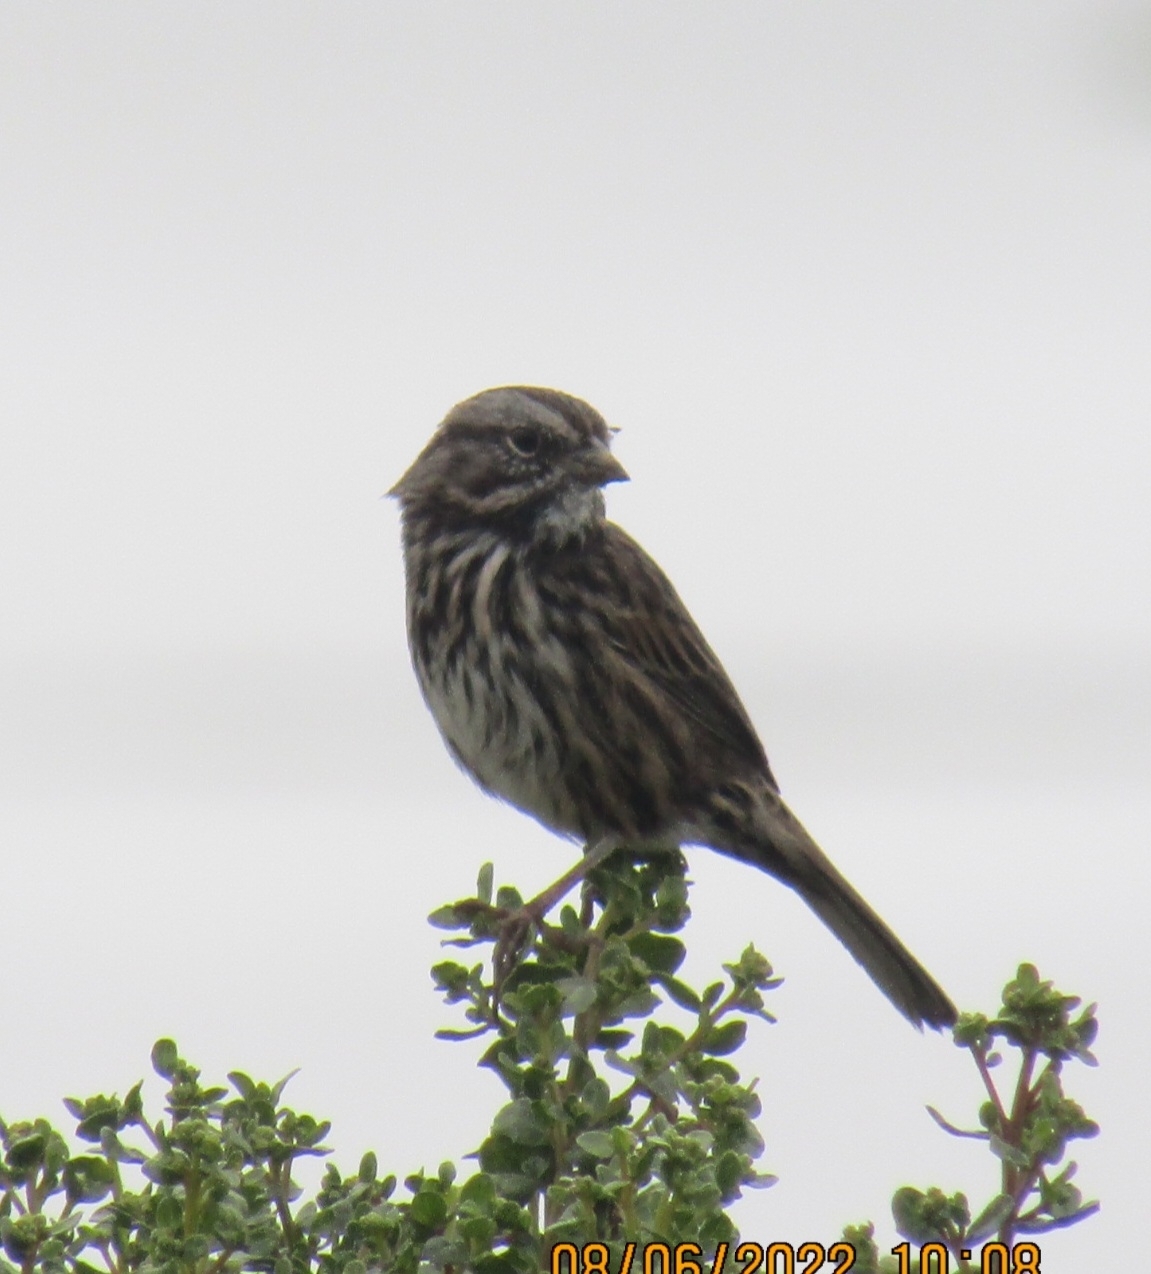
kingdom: Animalia
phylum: Chordata
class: Aves
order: Passeriformes
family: Passerellidae
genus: Melospiza
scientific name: Melospiza melodia
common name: Song sparrow
